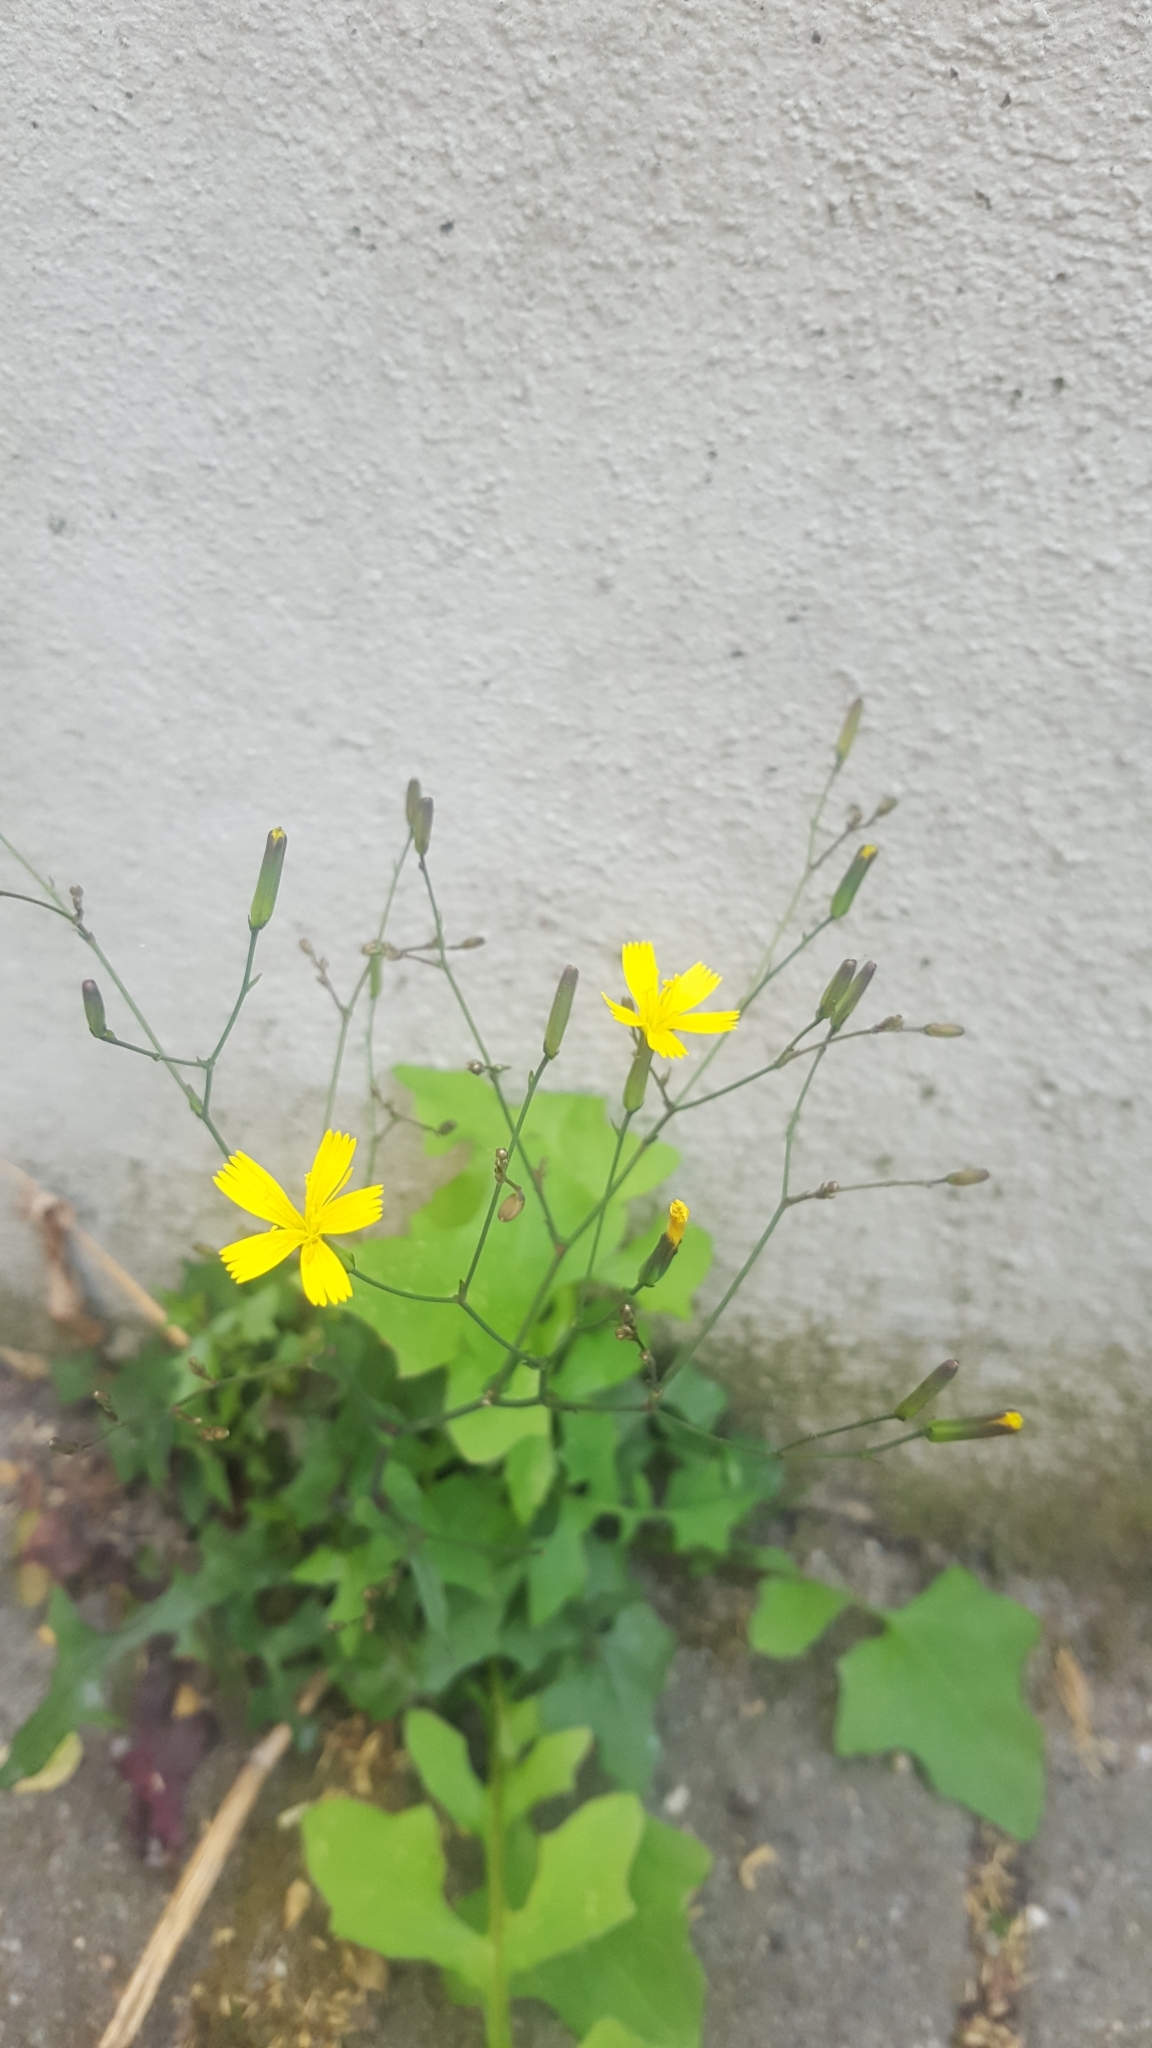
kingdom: Plantae
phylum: Tracheophyta
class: Magnoliopsida
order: Asterales
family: Asteraceae
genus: Mycelis
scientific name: Mycelis muralis
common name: Wall lettuce
